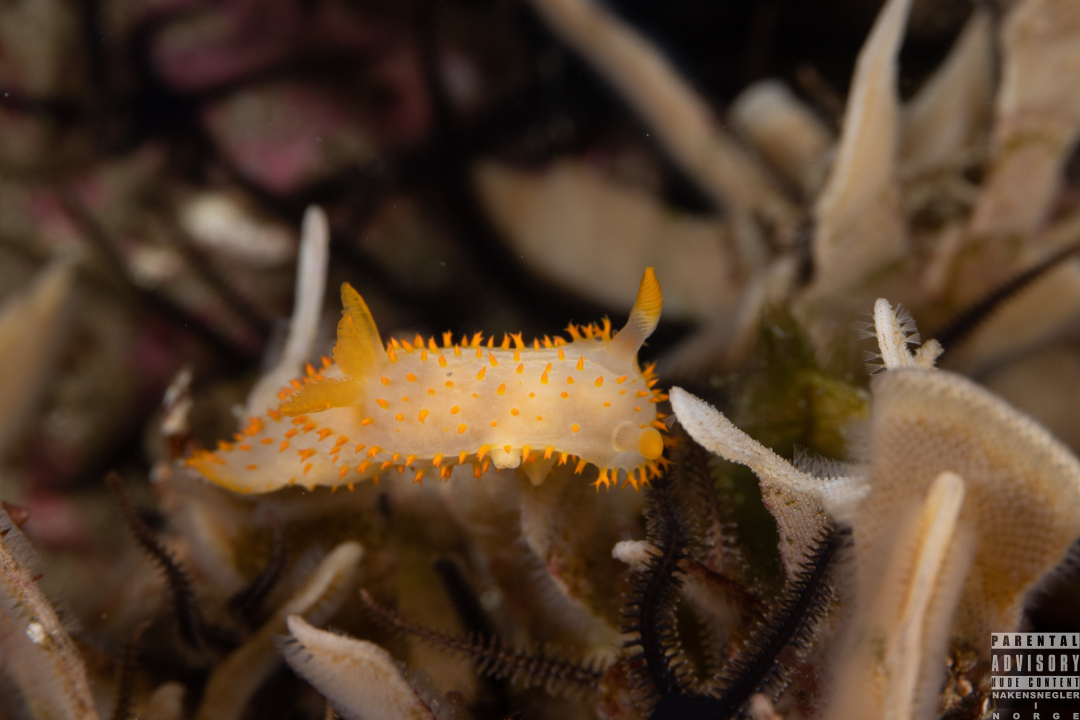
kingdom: Animalia
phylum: Mollusca
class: Gastropoda
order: Nudibranchia
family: Polyceridae
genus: Crimora
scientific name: Crimora papillata
